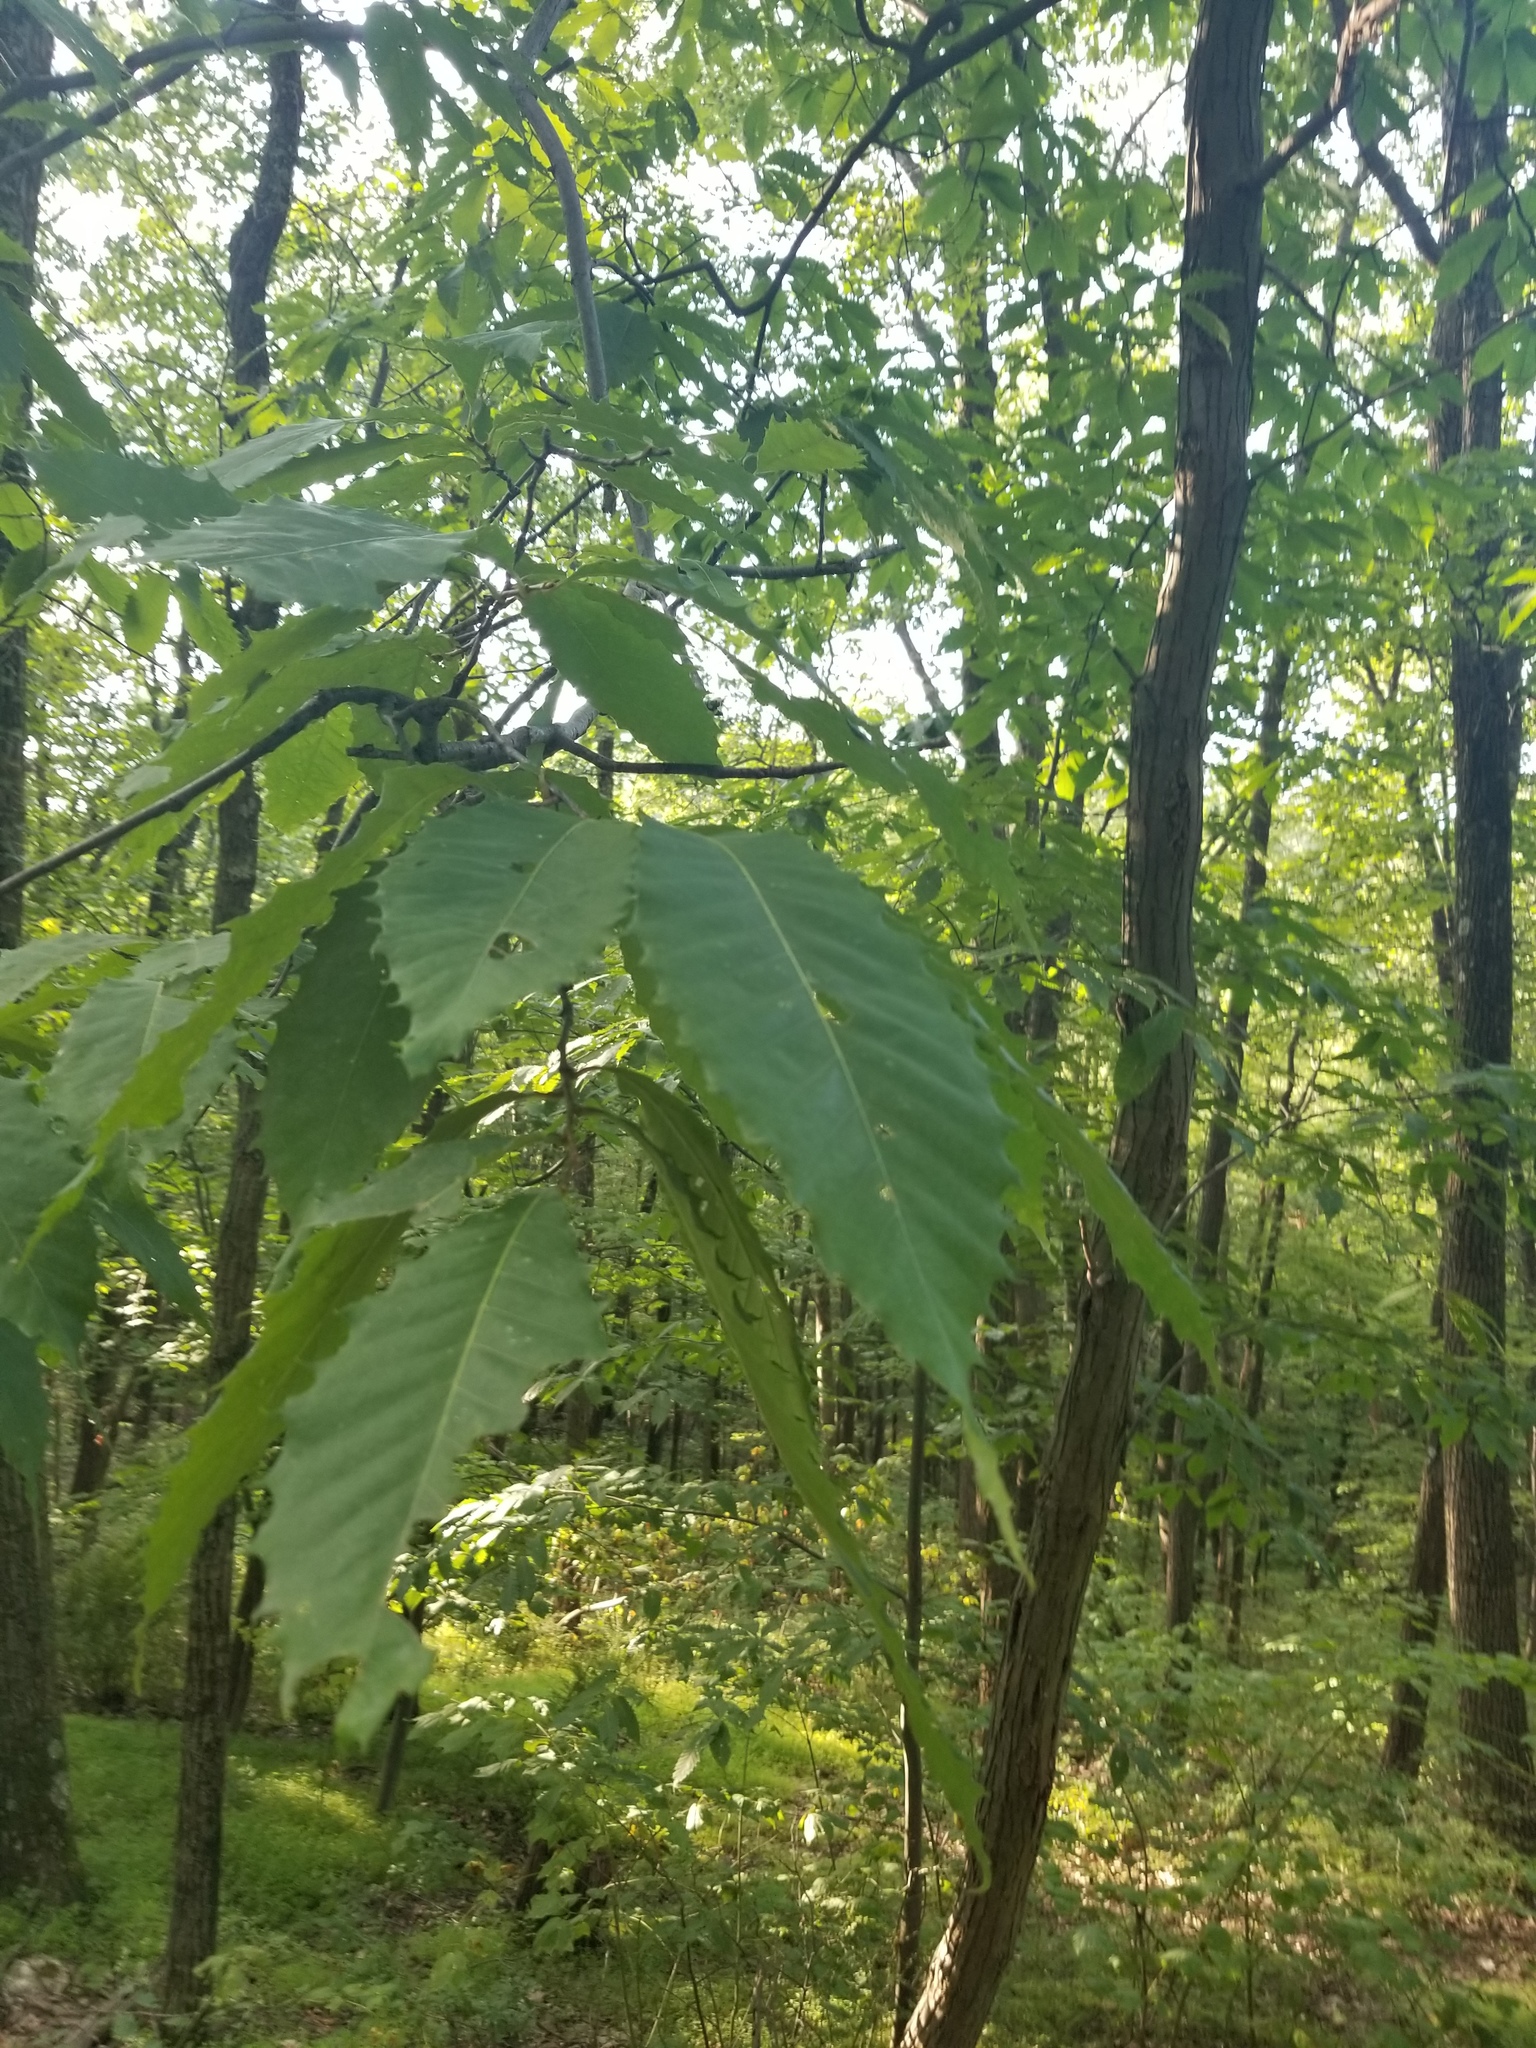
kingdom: Plantae
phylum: Tracheophyta
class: Magnoliopsida
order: Fagales
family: Fagaceae
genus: Castanea
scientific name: Castanea dentata
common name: American chestnut
